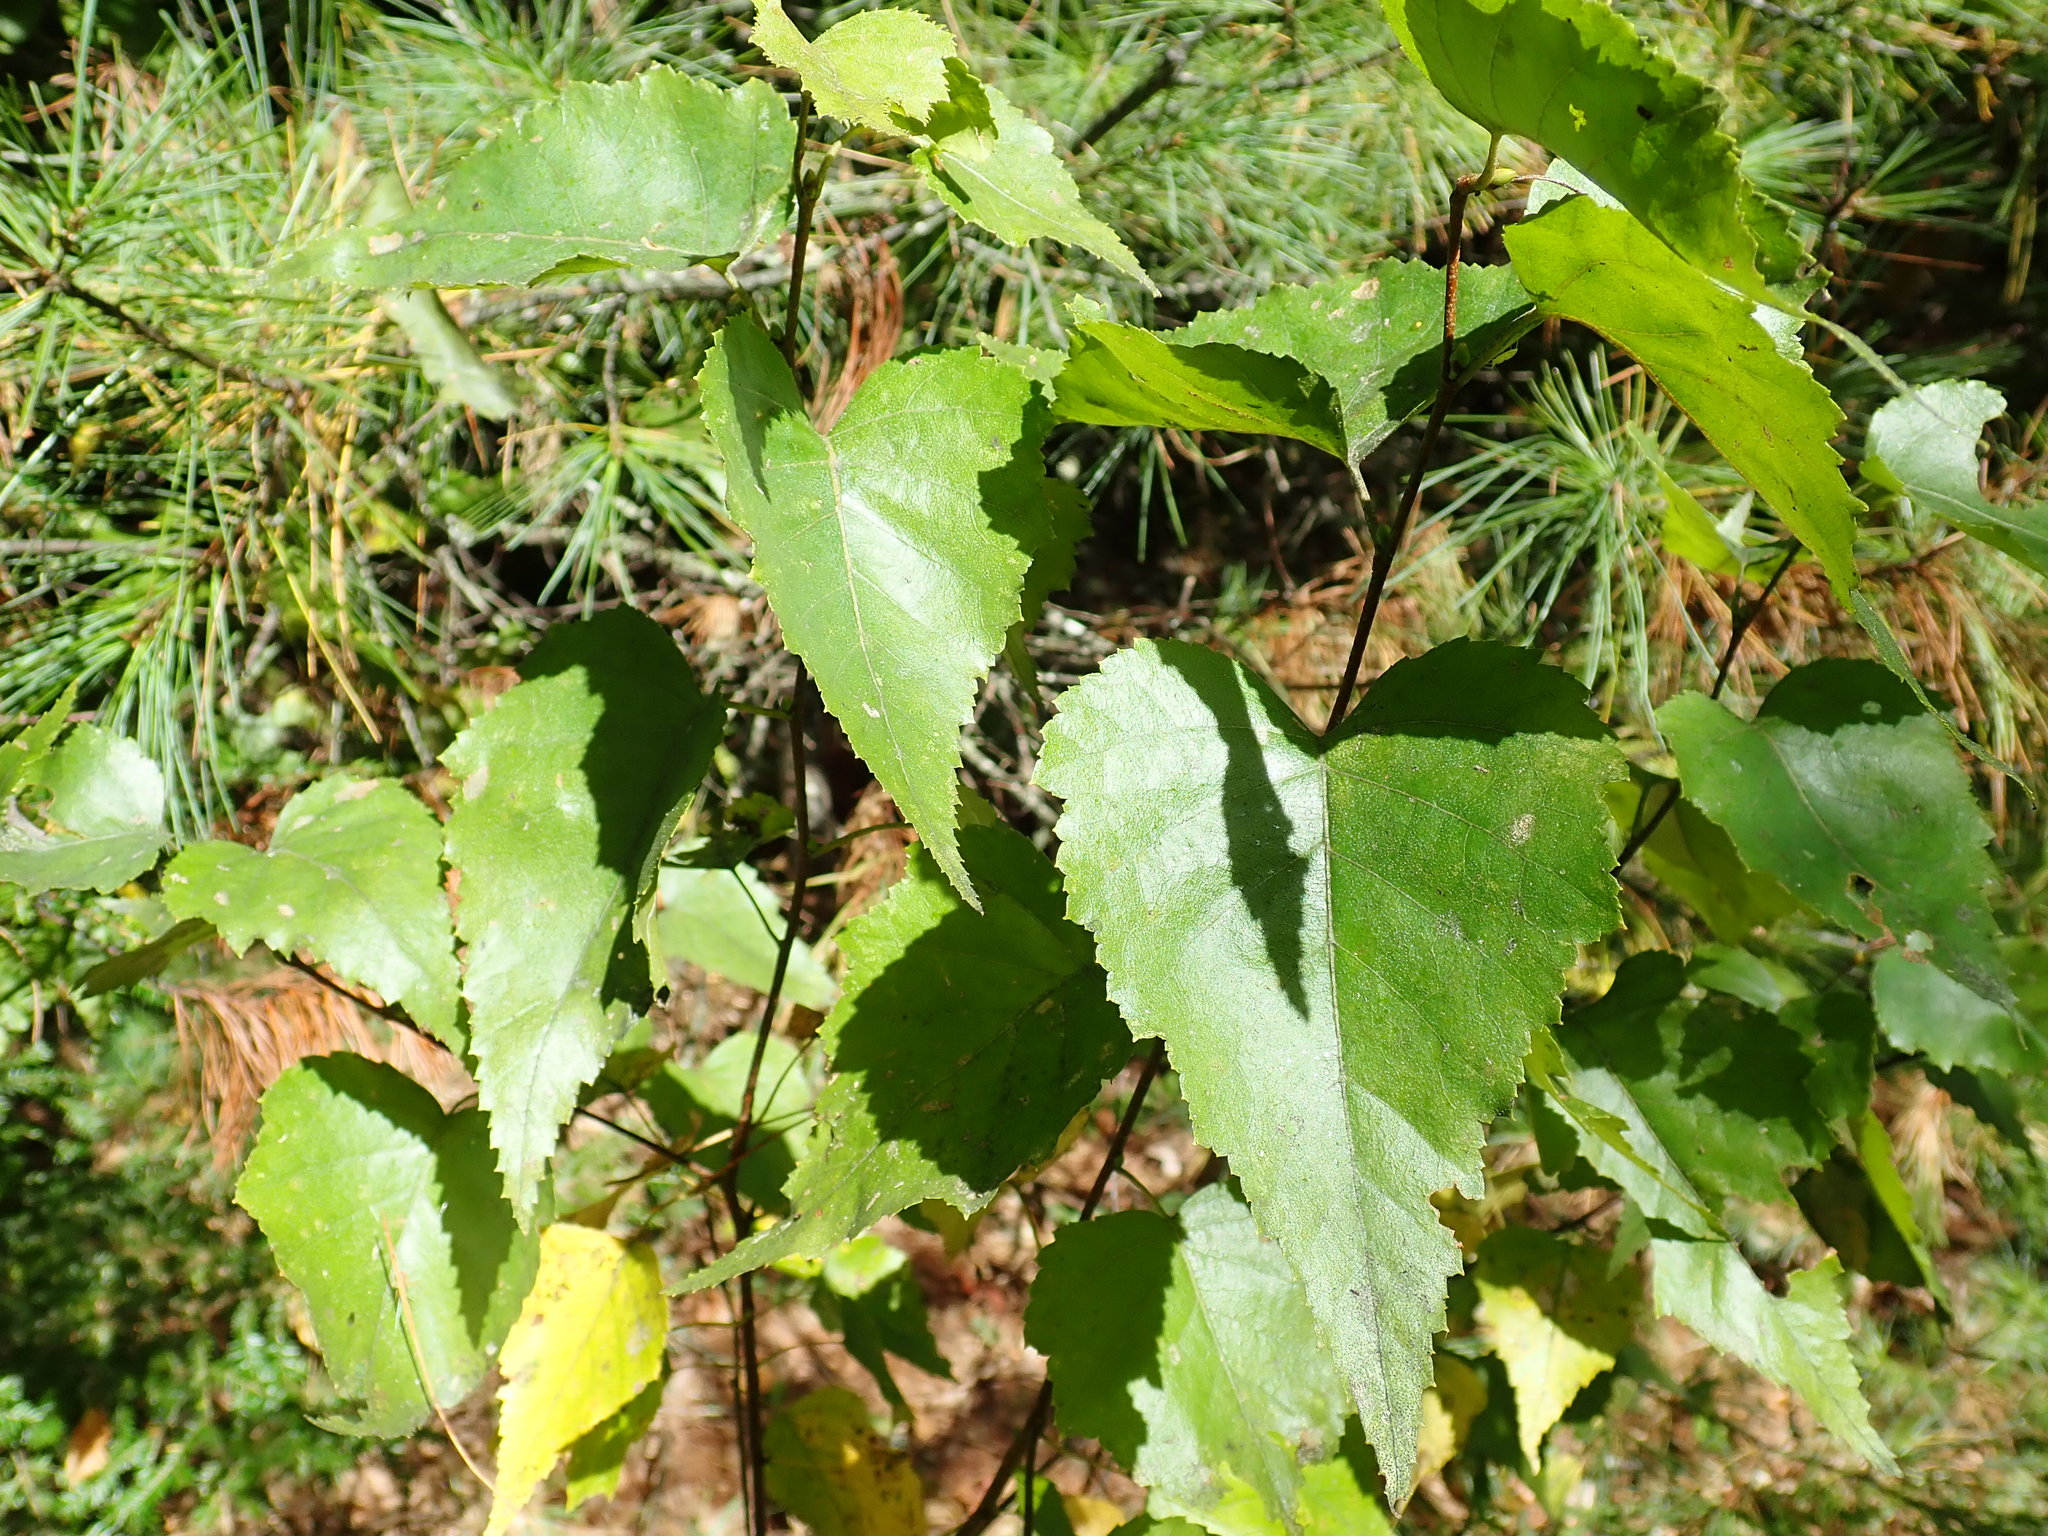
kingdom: Plantae
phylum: Tracheophyta
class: Magnoliopsida
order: Fagales
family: Betulaceae
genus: Betula
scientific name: Betula populifolia
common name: Fire birch
